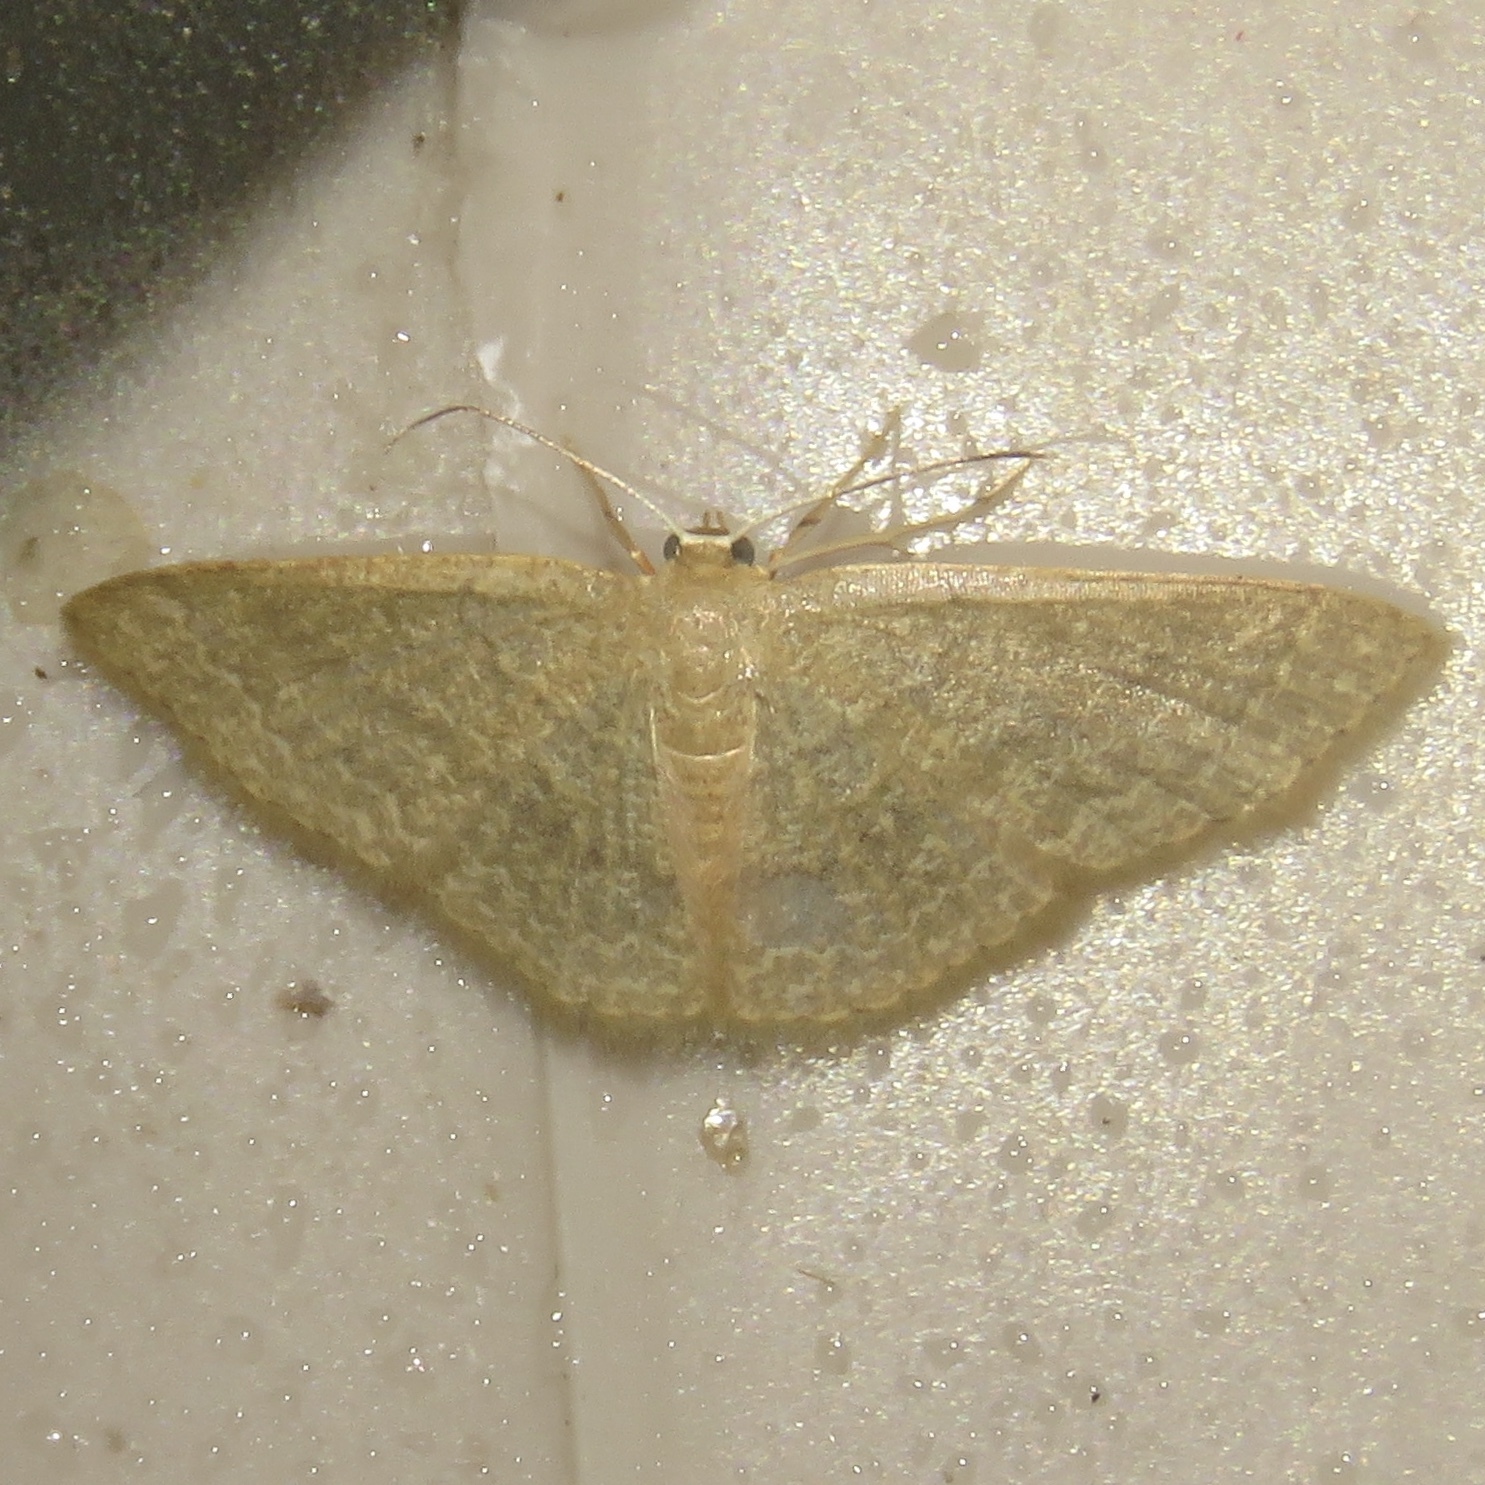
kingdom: Animalia
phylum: Arthropoda
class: Insecta
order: Lepidoptera
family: Geometridae
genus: Pleuroprucha
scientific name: Pleuroprucha insulsaria
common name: Common tan wave
